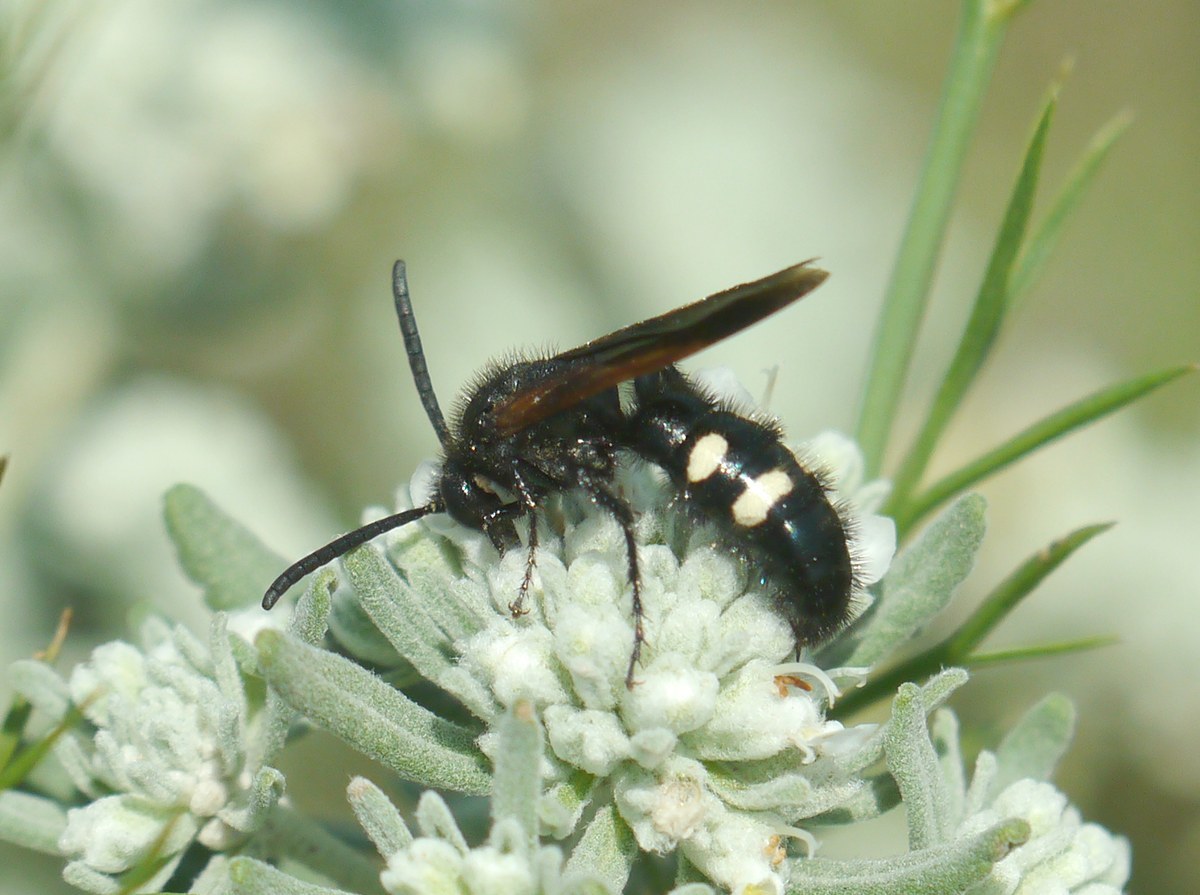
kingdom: Animalia
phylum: Arthropoda
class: Insecta
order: Hymenoptera
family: Vespidae
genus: Vespa
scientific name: Vespa sexmaculata
